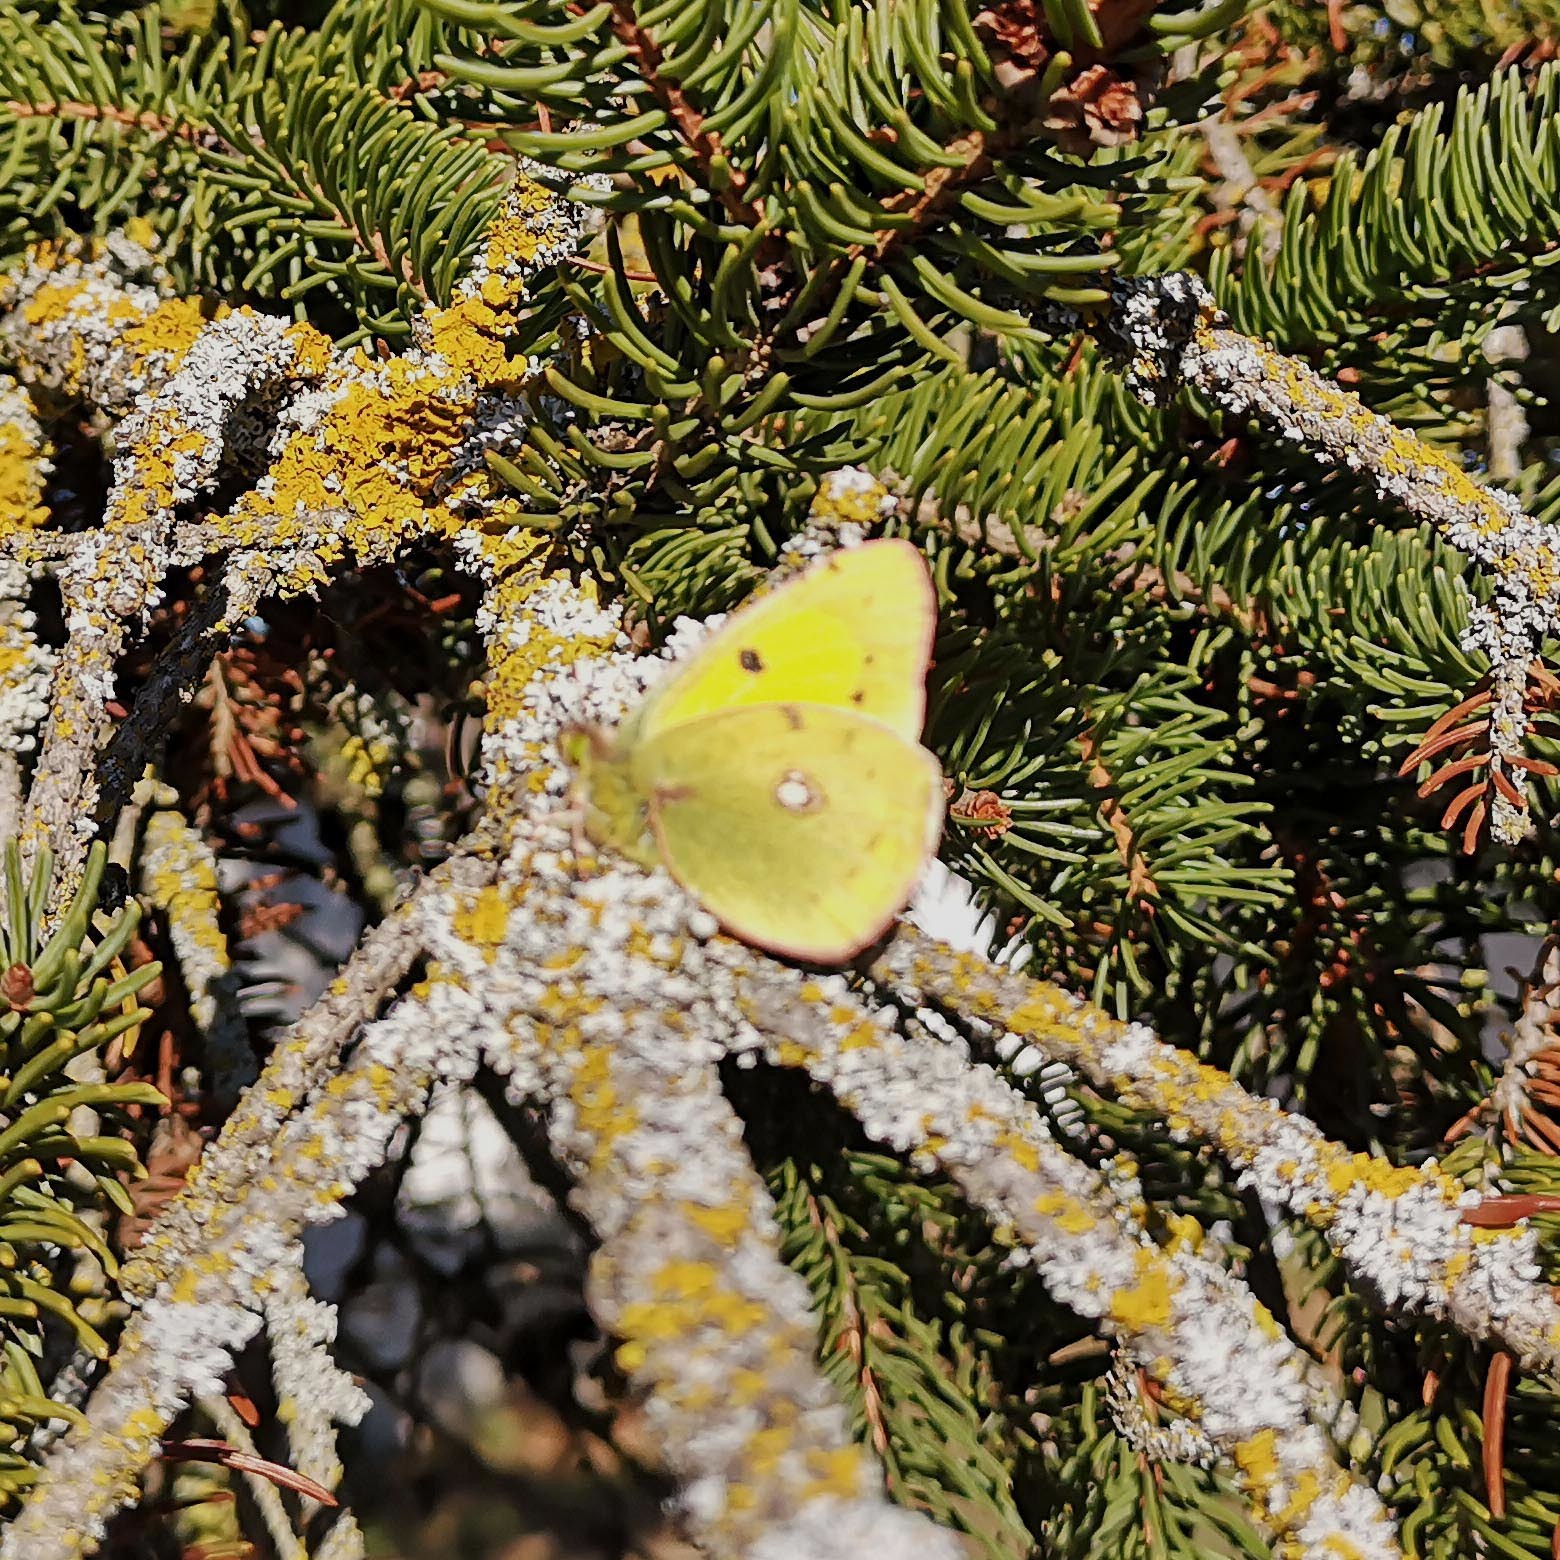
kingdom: Animalia
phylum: Arthropoda
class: Insecta
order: Lepidoptera
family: Pieridae
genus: Colias
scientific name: Colias croceus
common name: Clouded yellow
